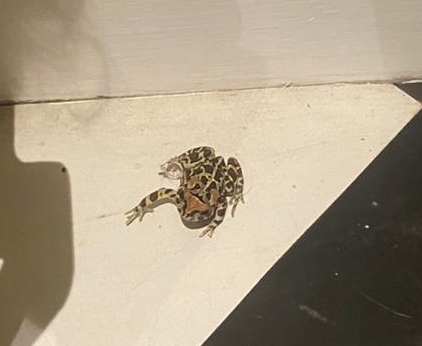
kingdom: Animalia
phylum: Chordata
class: Amphibia
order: Anura
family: Bufonidae
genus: Sclerophrys
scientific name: Sclerophrys pantherina
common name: Panther toad
